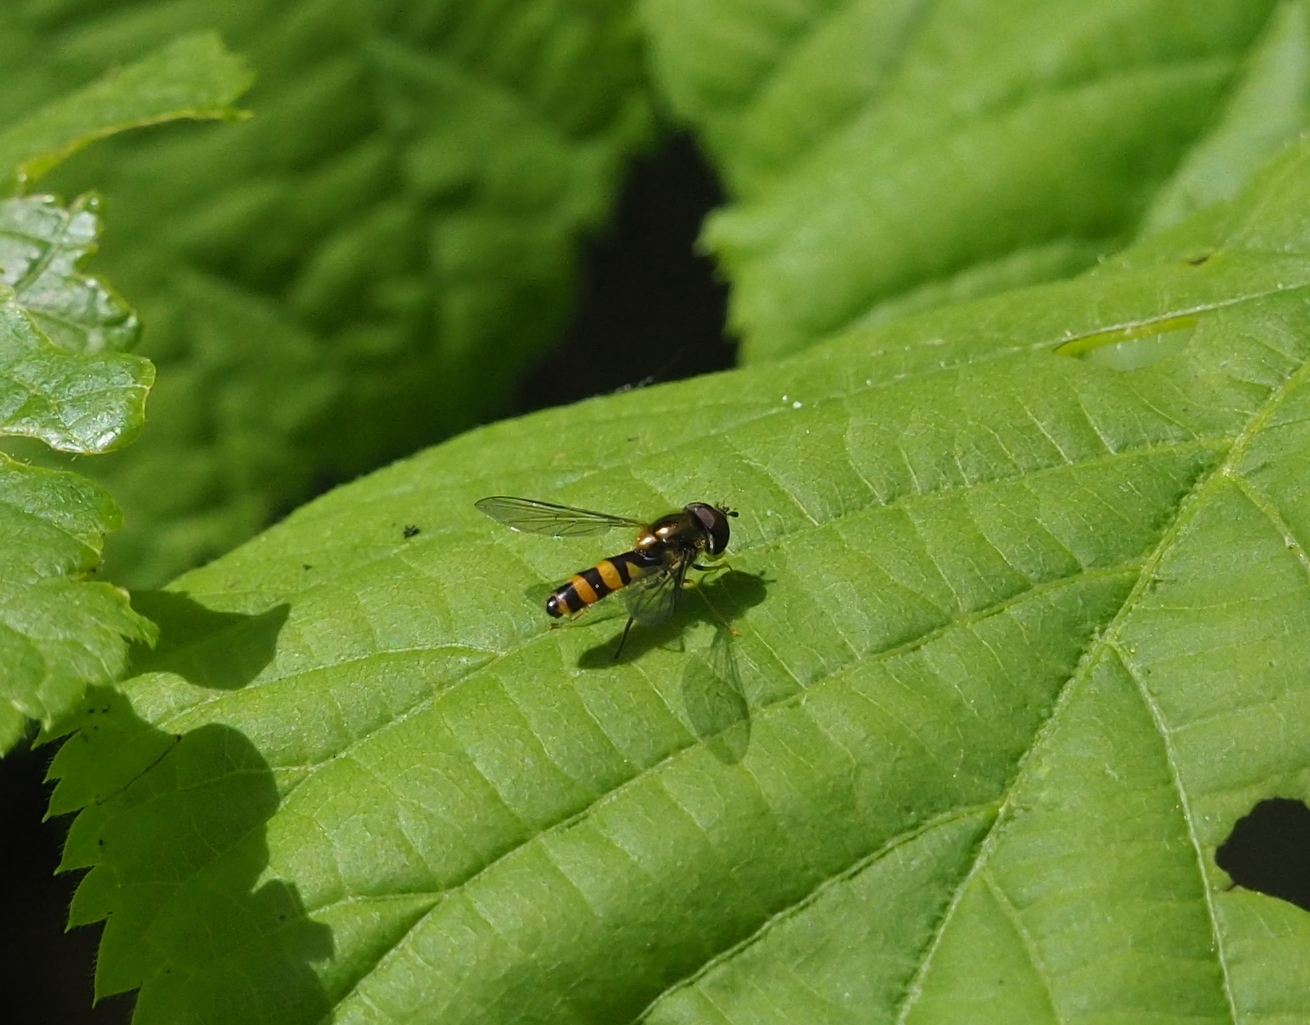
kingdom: Animalia
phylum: Arthropoda
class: Insecta
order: Diptera
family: Syrphidae
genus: Fagisyrphus
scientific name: Fagisyrphus cincta
